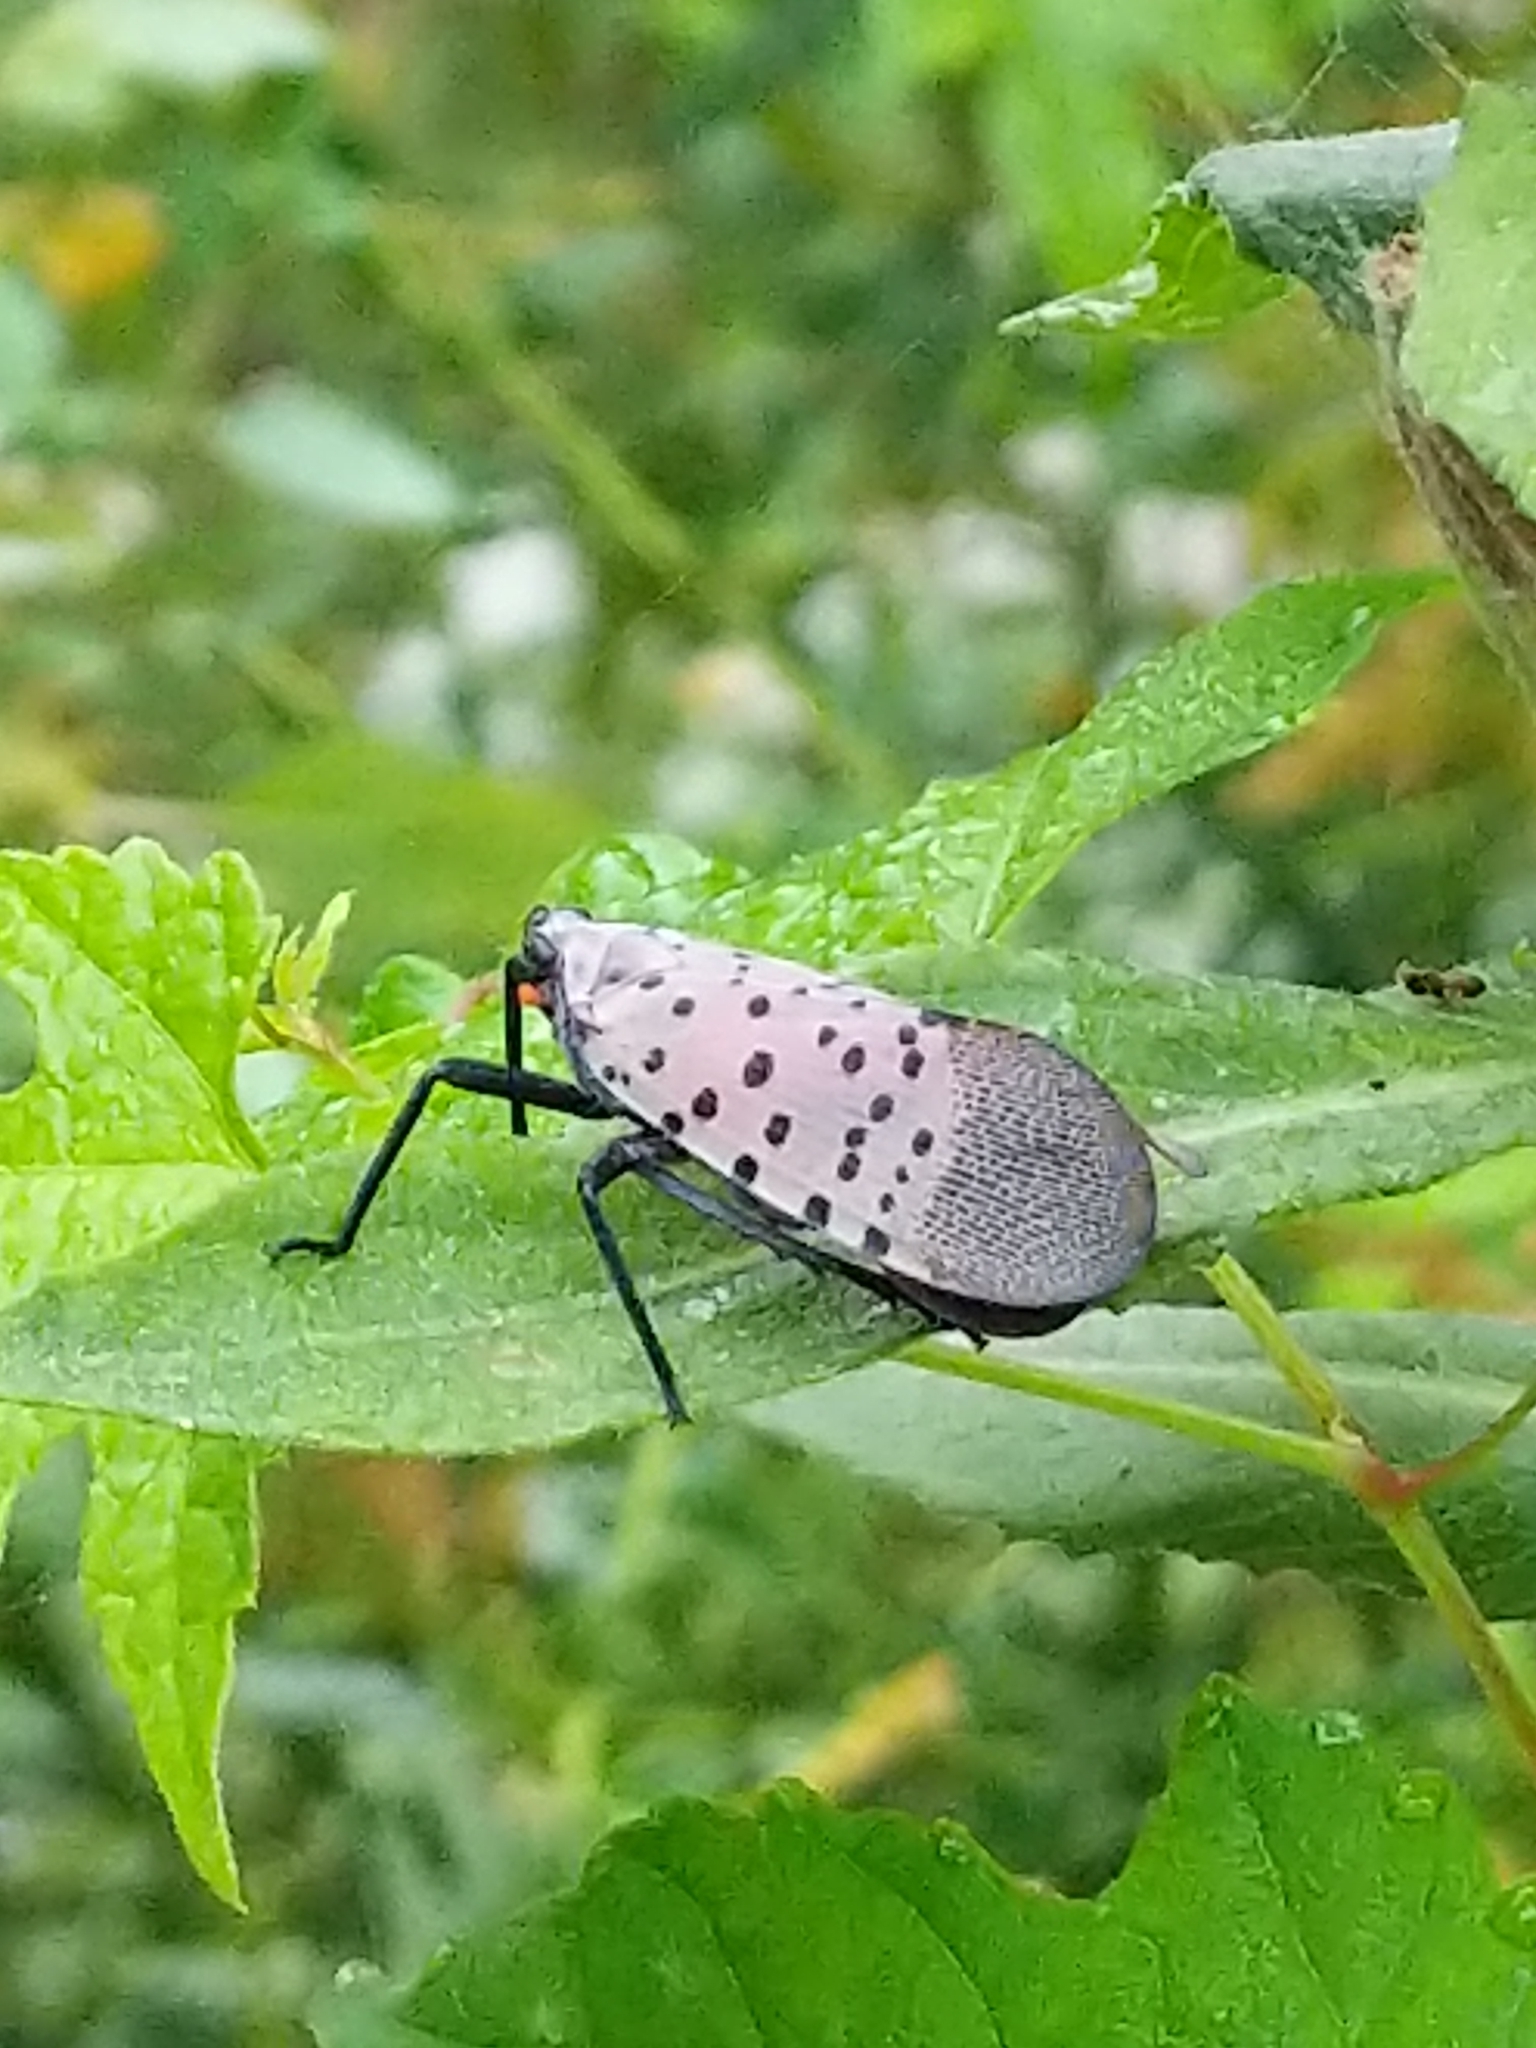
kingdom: Animalia
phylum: Arthropoda
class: Insecta
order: Hemiptera
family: Fulgoridae
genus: Lycorma
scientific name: Lycorma delicatula
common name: Spotted lanternfly
